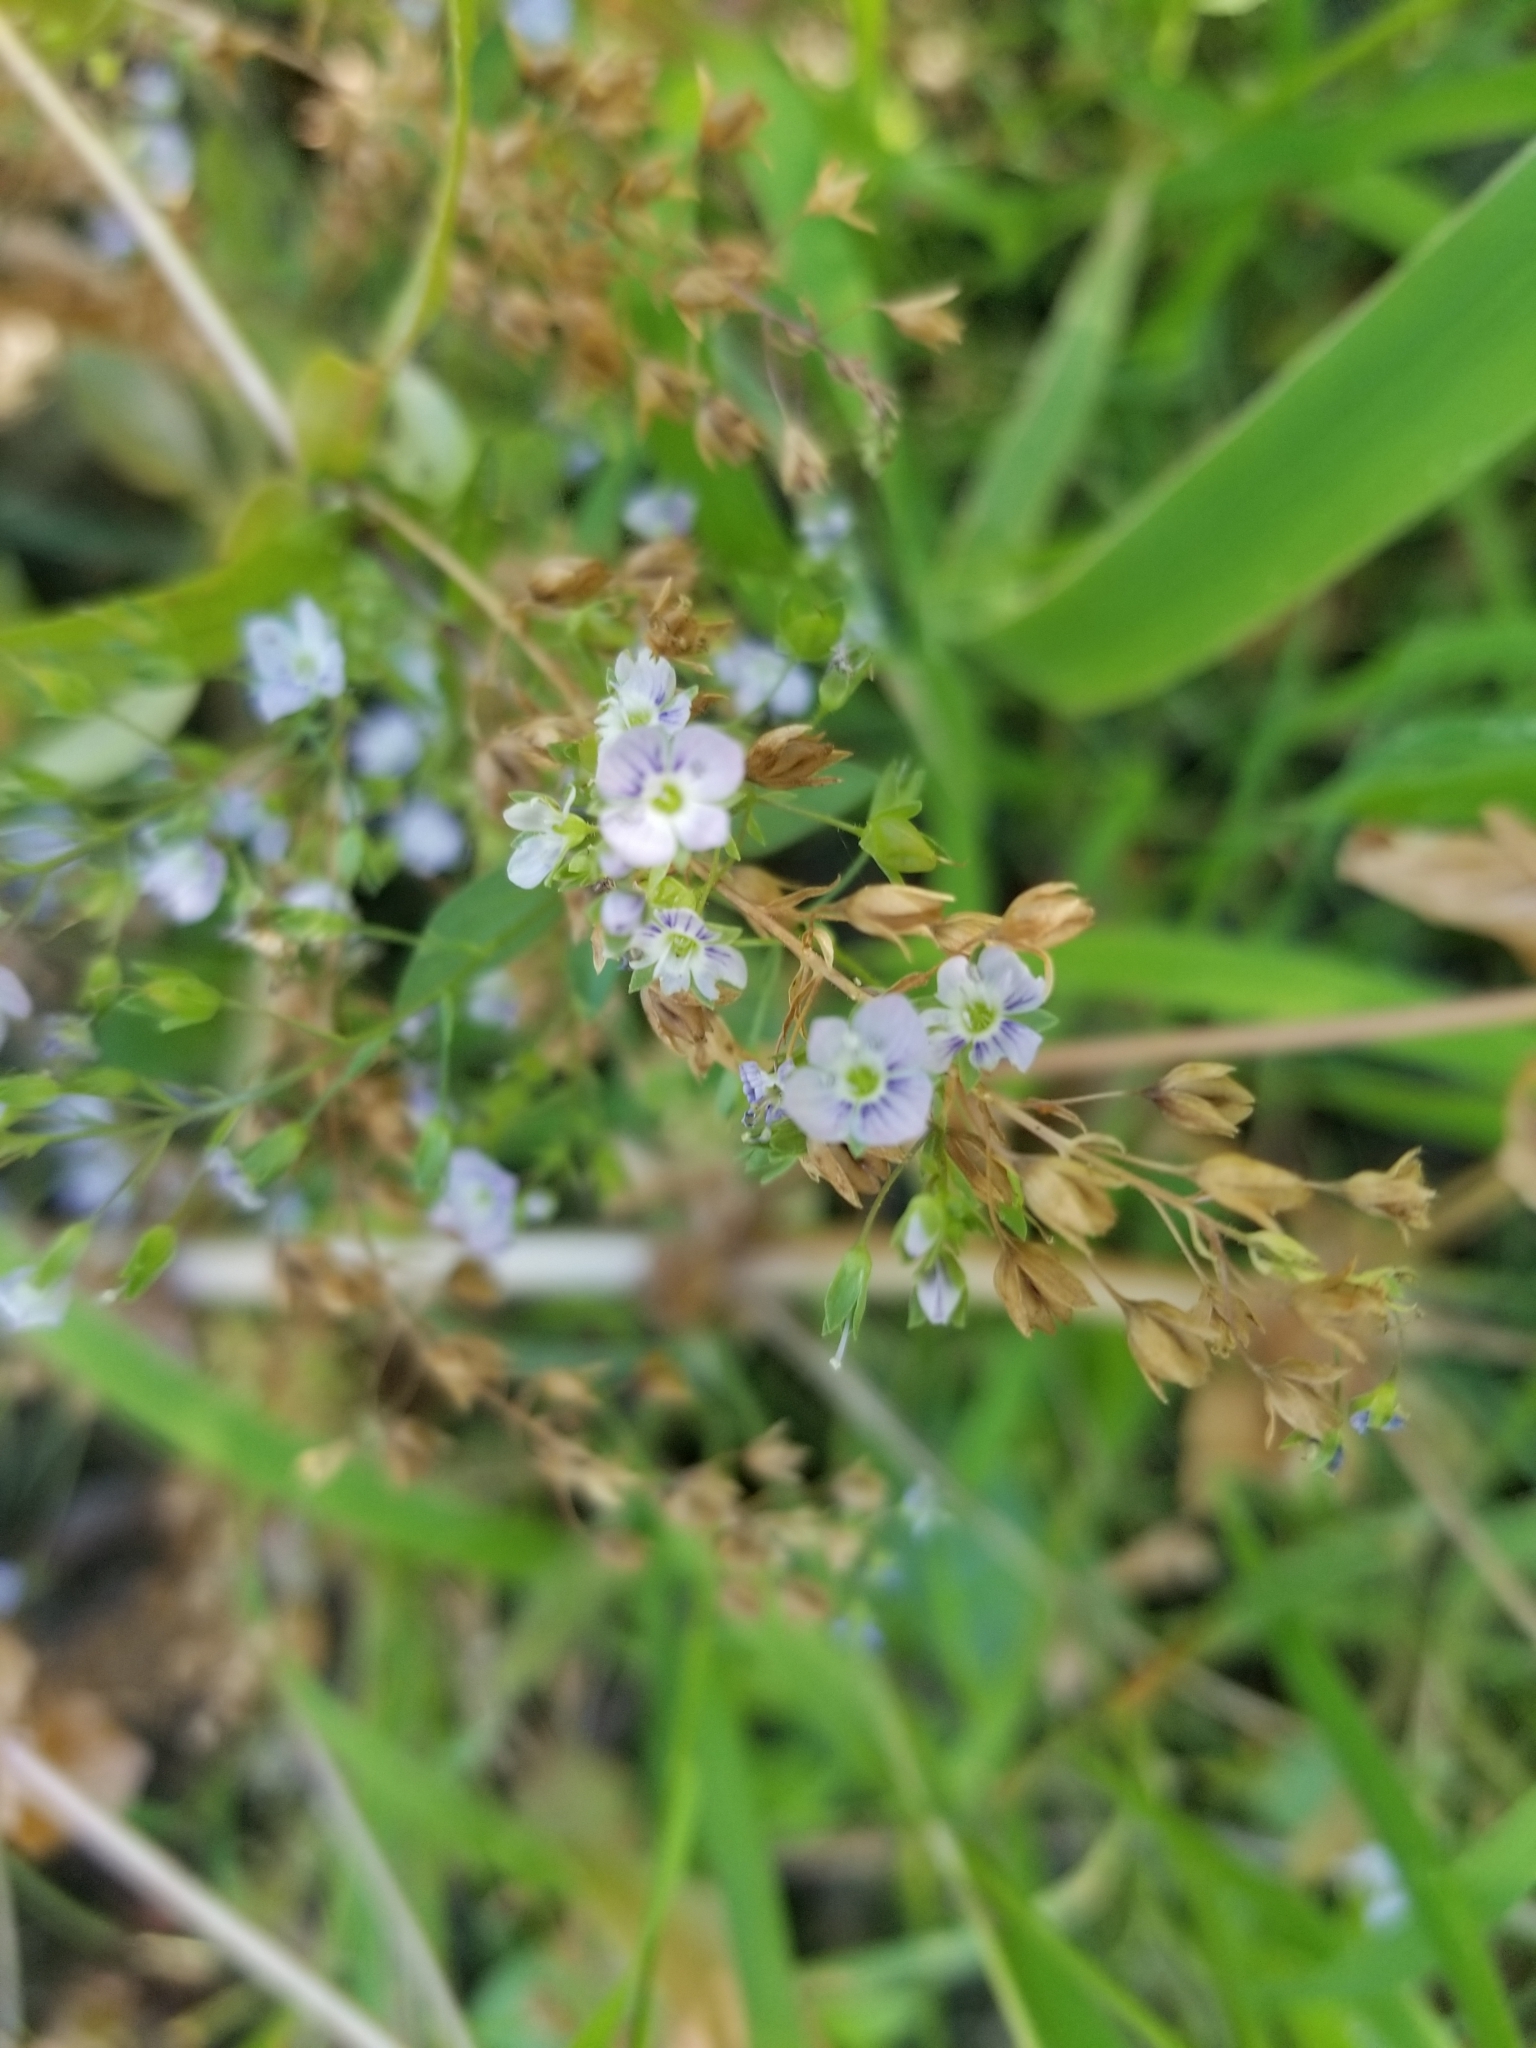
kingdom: Plantae
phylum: Tracheophyta
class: Magnoliopsida
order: Lamiales
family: Plantaginaceae
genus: Veronica
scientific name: Veronica anagallis-aquatica
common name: Water speedwell
